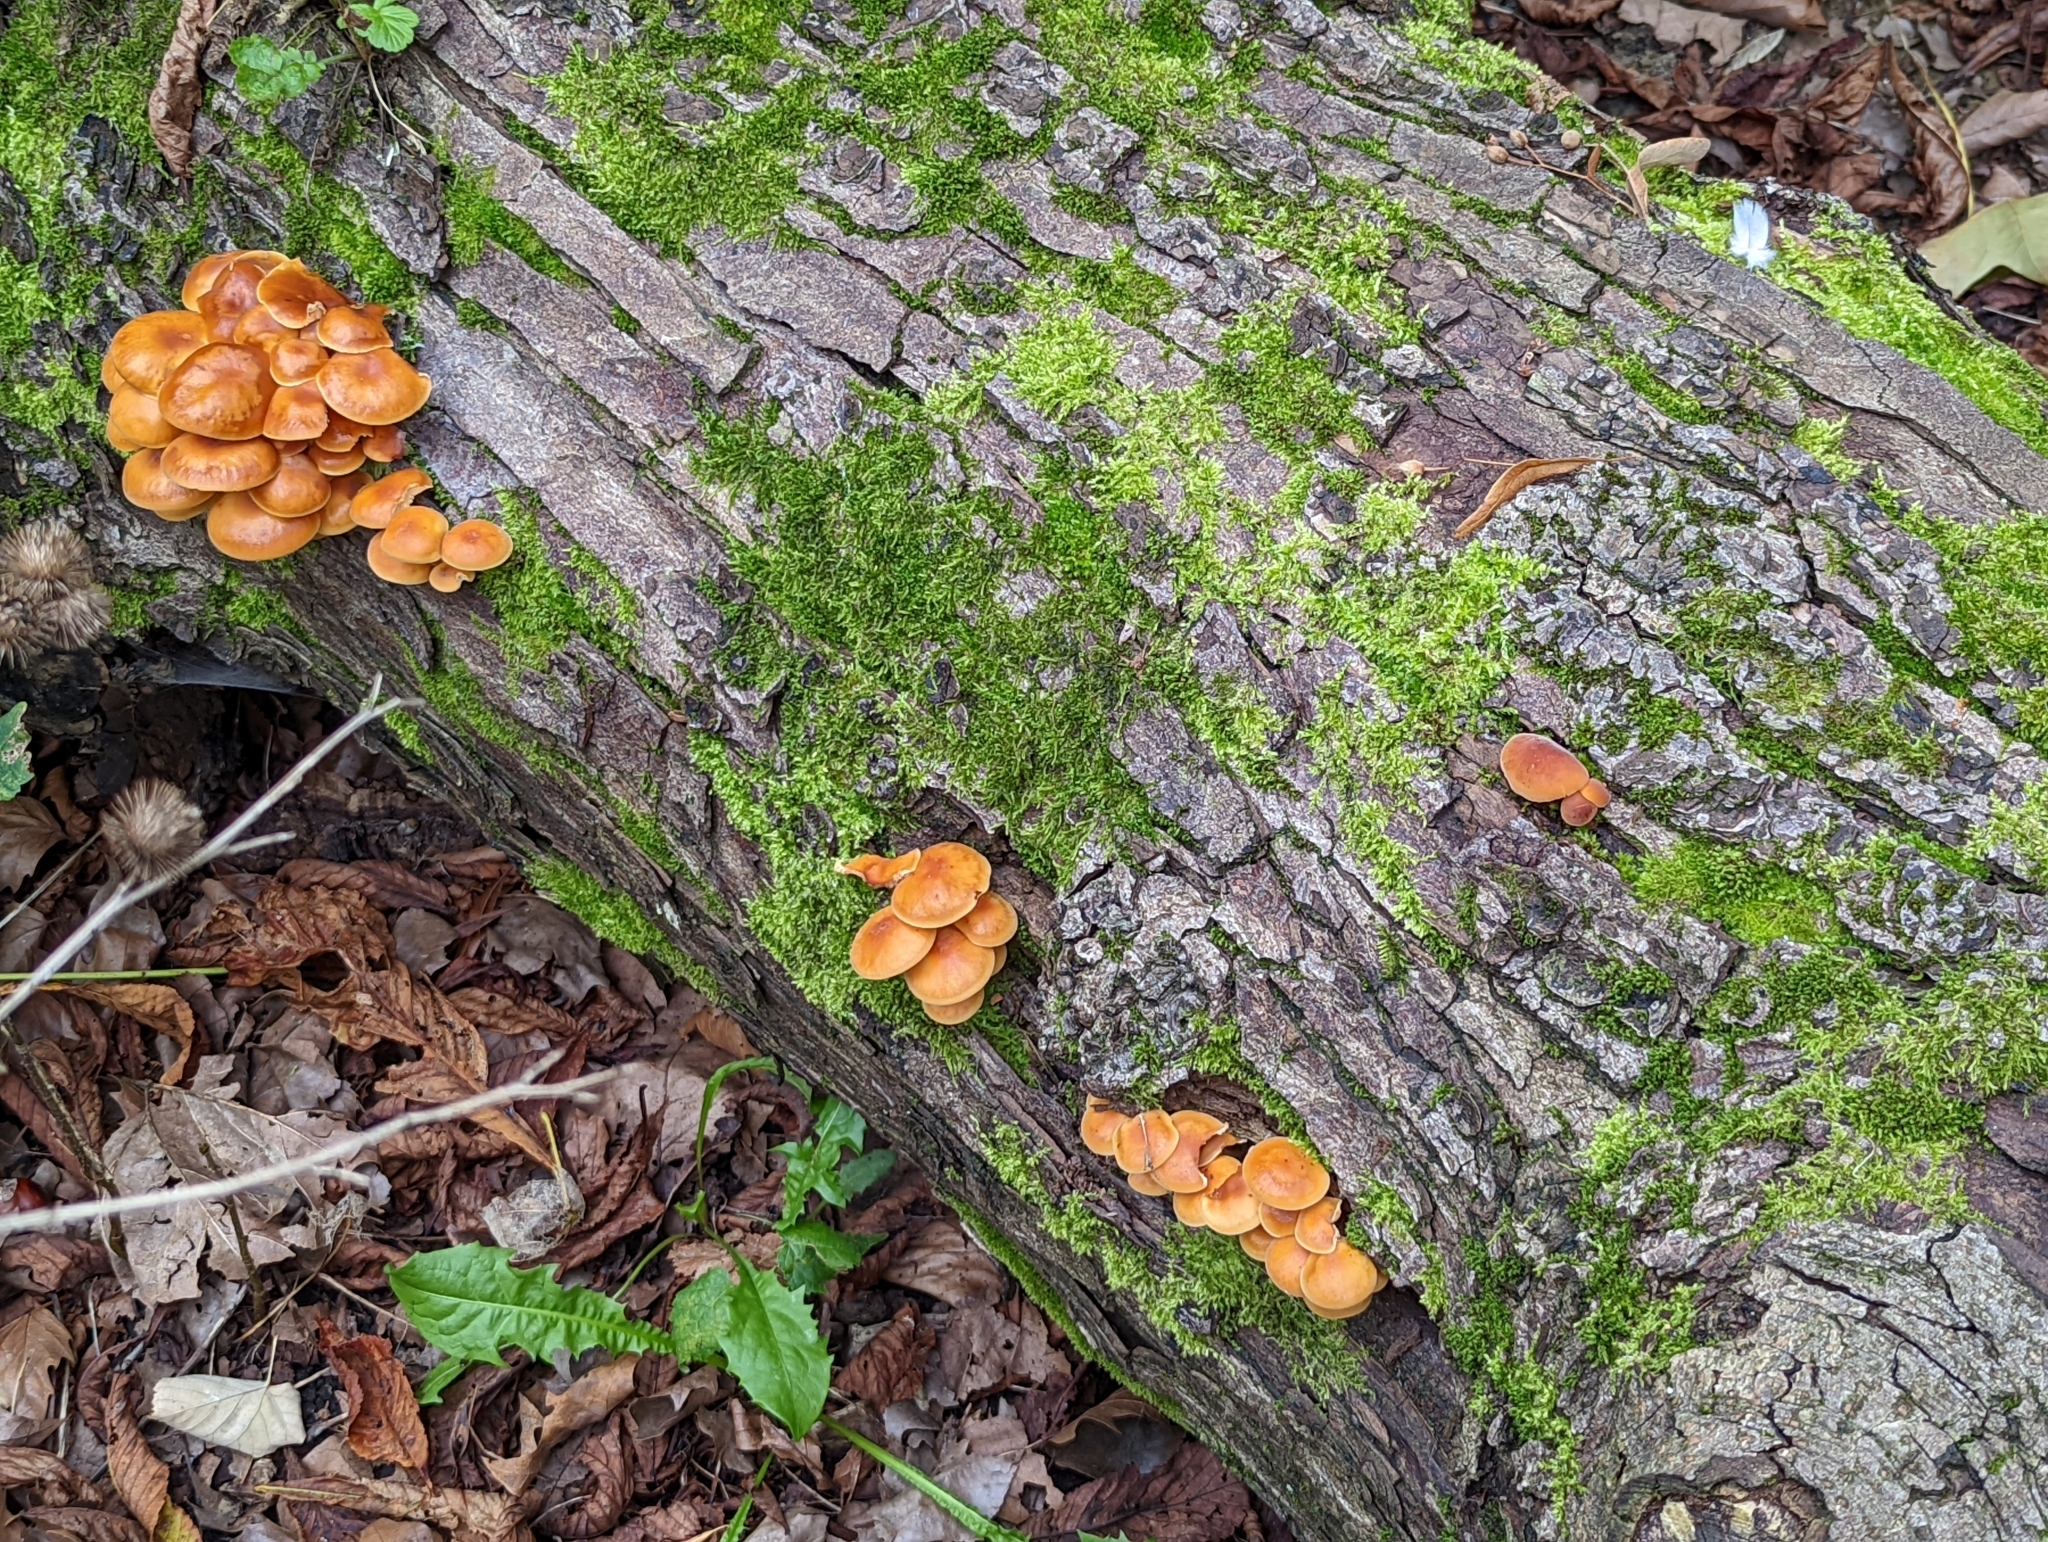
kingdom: Fungi
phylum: Basidiomycota
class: Agaricomycetes
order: Agaricales
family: Physalacriaceae
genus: Flammulina
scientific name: Flammulina
